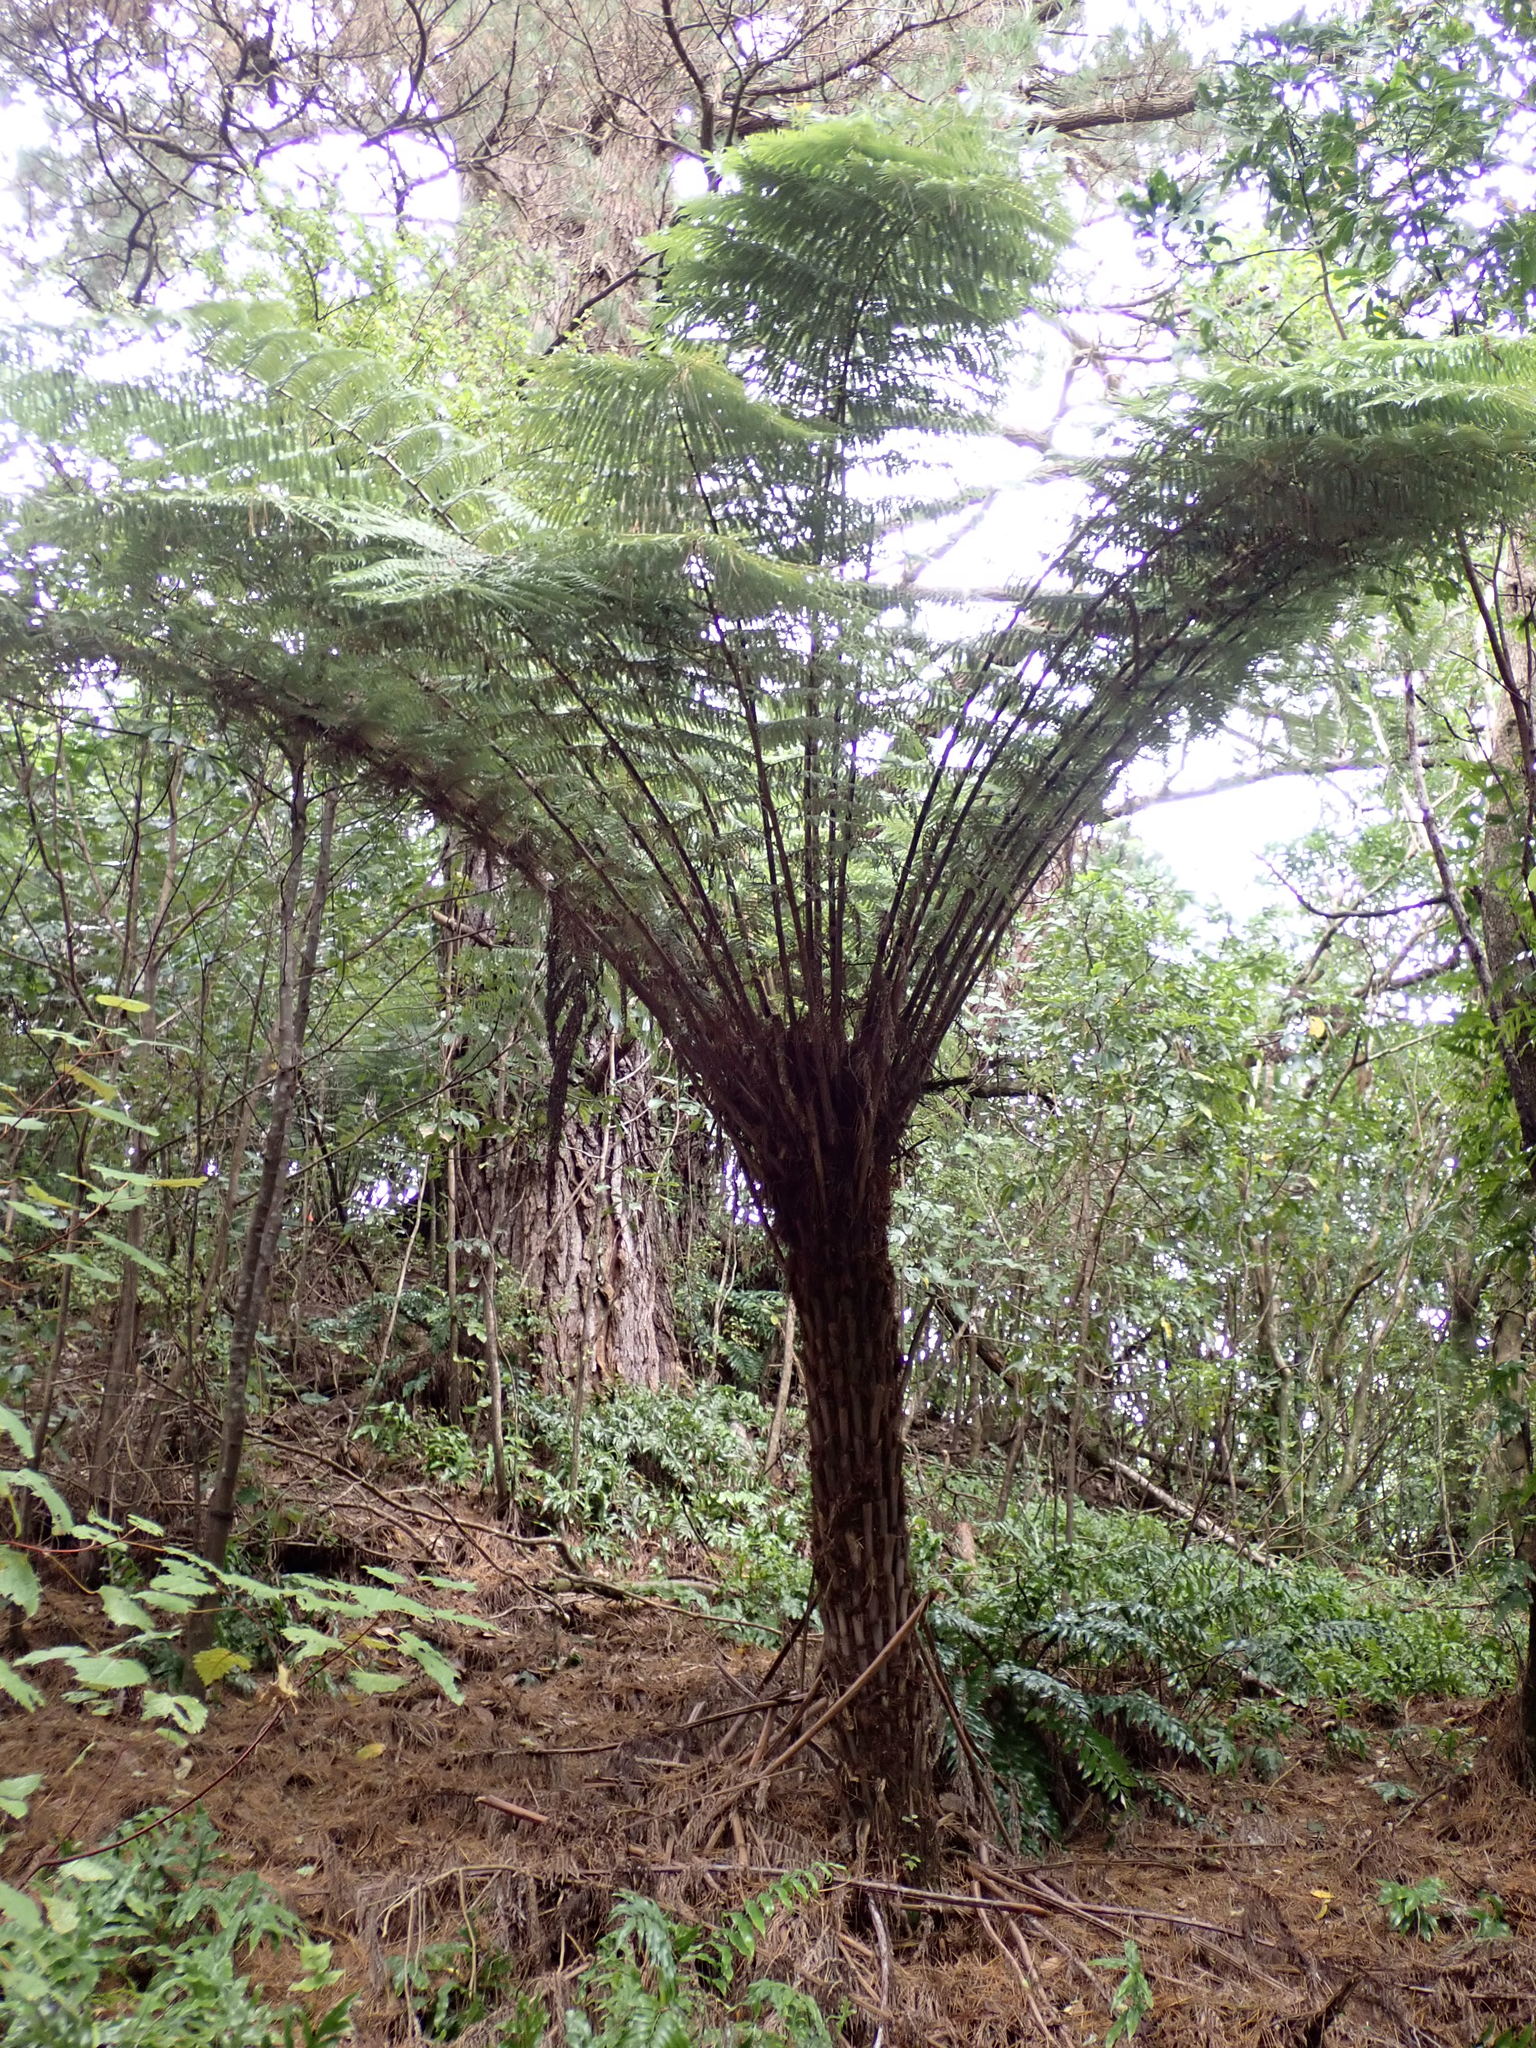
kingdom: Plantae
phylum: Tracheophyta
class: Polypodiopsida
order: Cyatheales
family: Cyatheaceae
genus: Alsophila
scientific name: Alsophila dealbata
